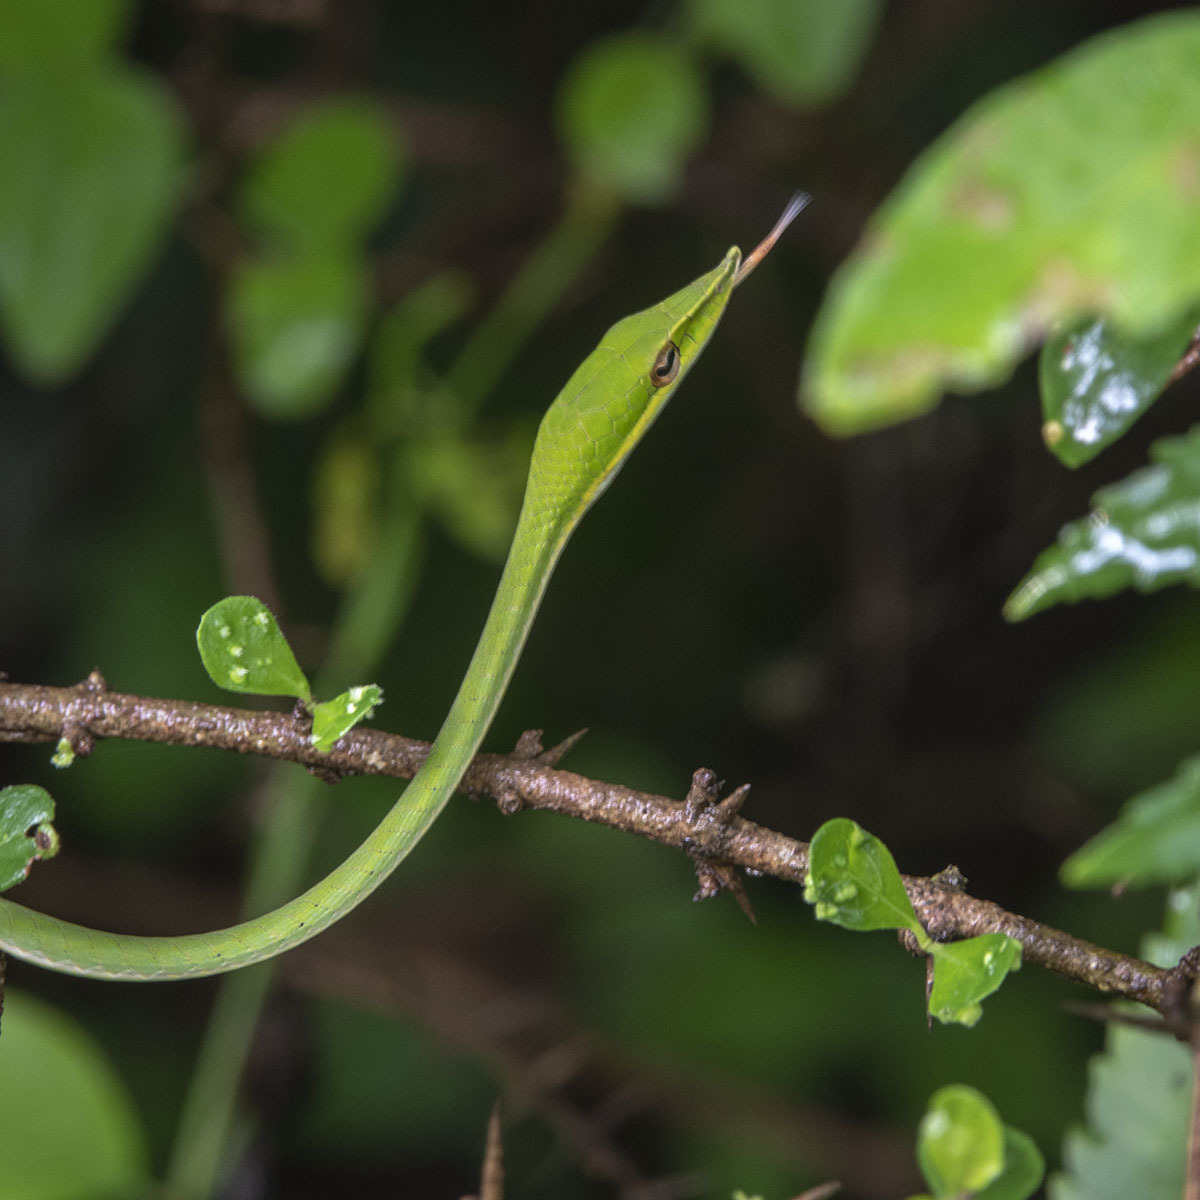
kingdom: Animalia
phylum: Chordata
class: Squamata
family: Colubridae
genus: Ahaetulla
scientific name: Ahaetulla oxyrhyncha
